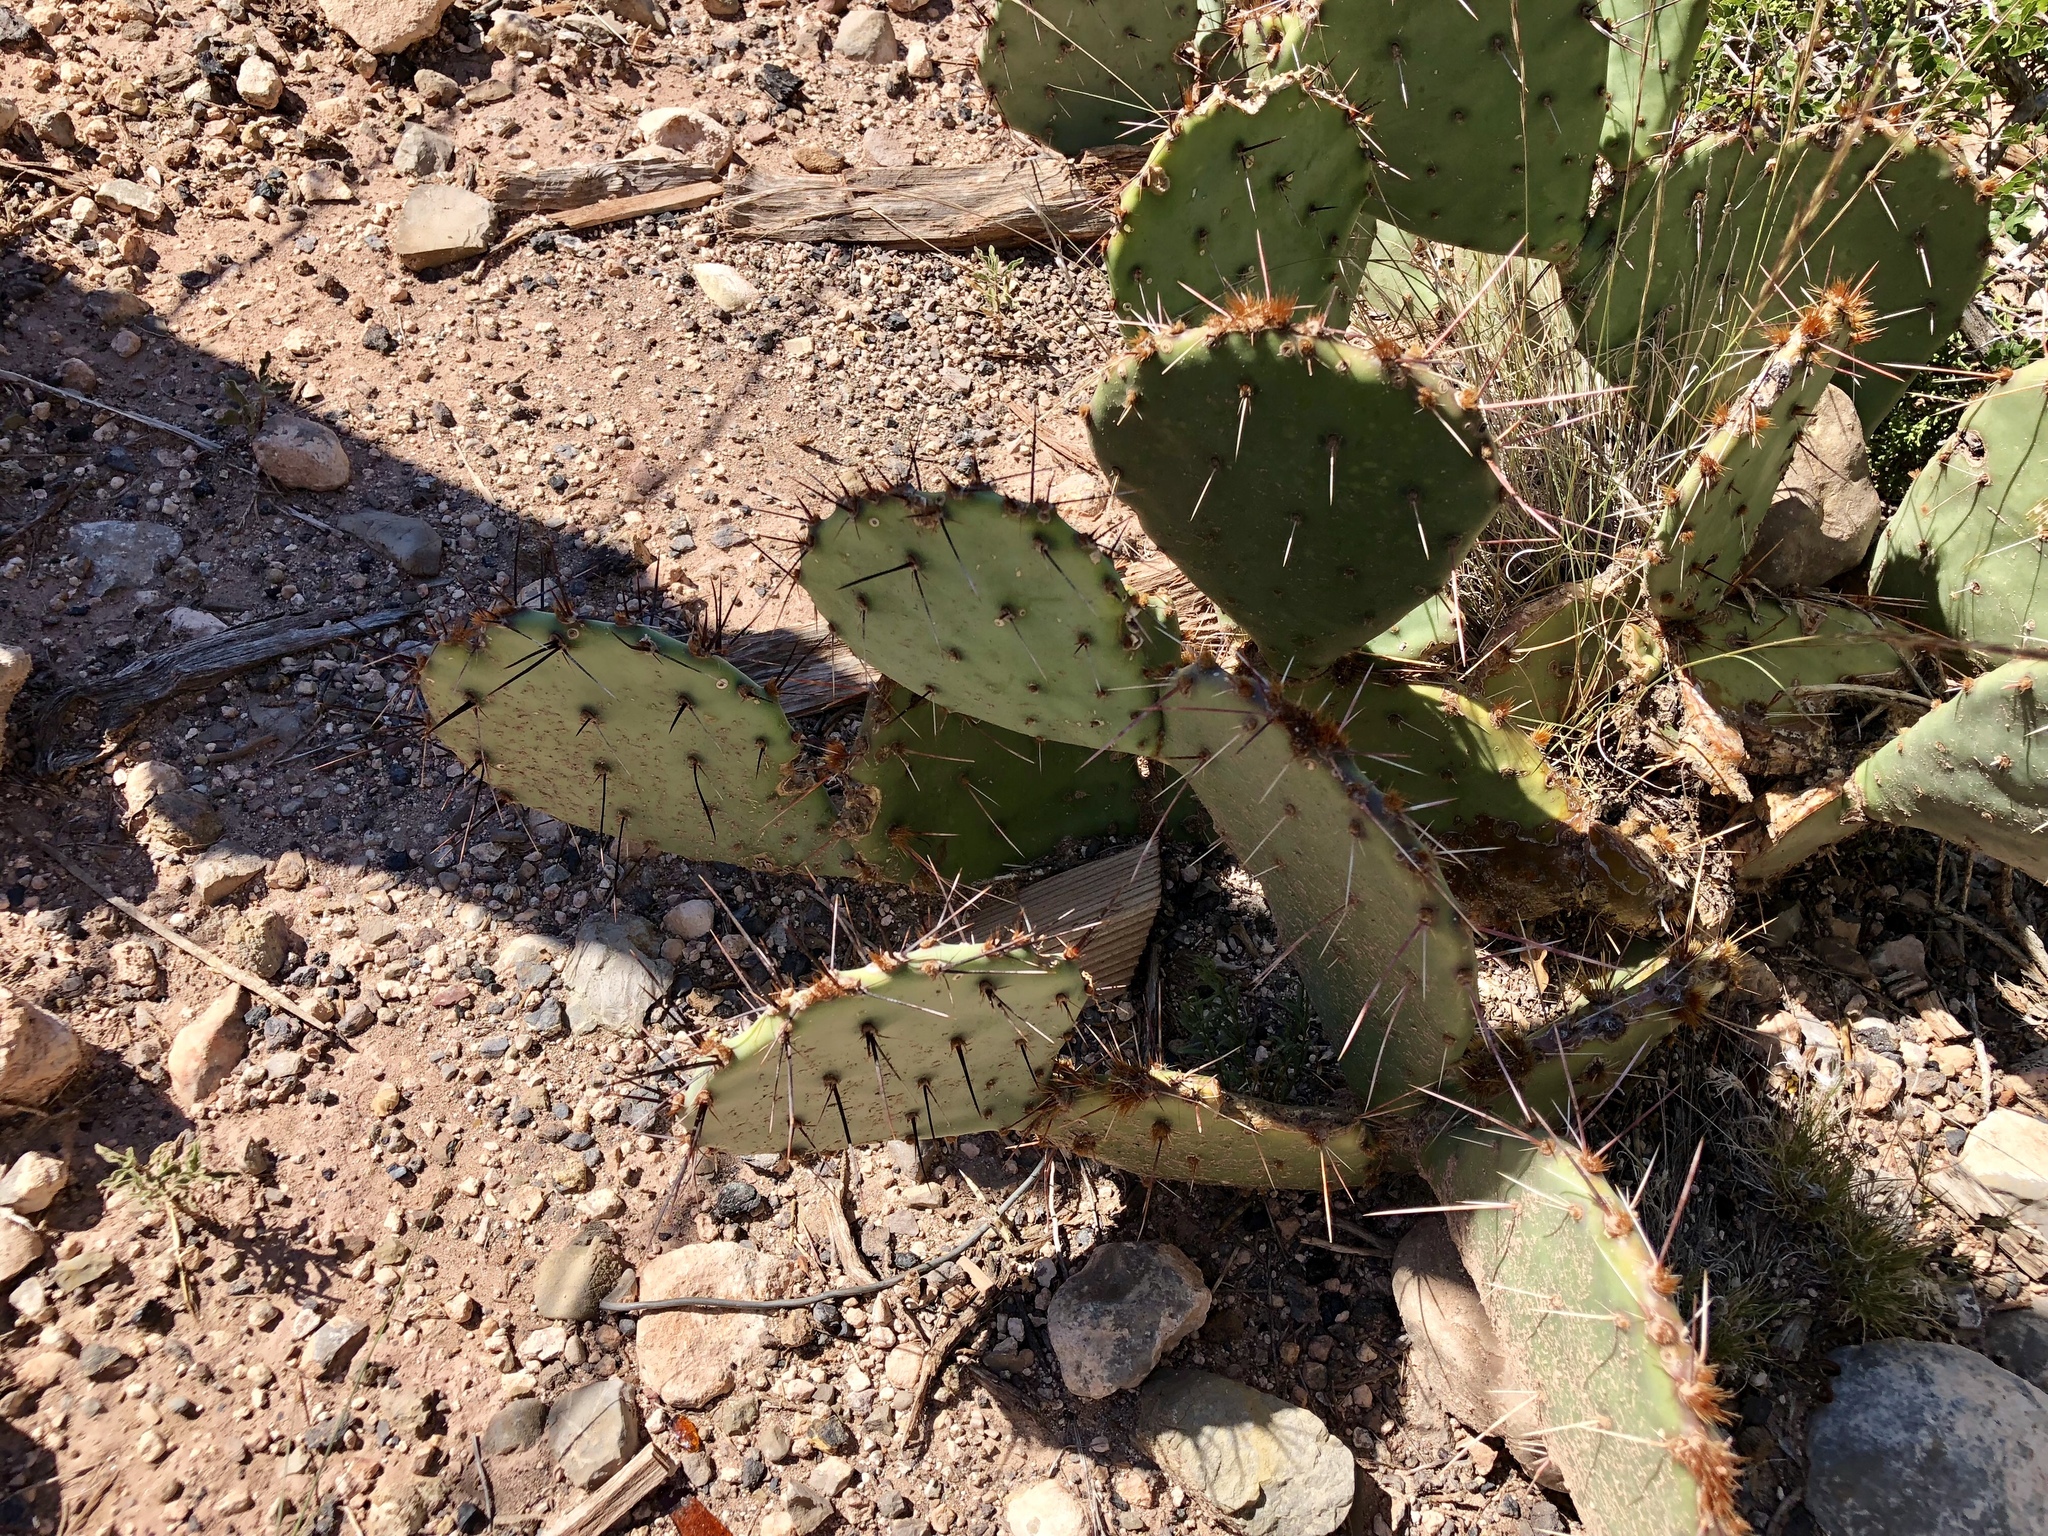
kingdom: Plantae
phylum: Tracheophyta
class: Magnoliopsida
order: Caryophyllales
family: Cactaceae
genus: Opuntia
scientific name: Opuntia engelmannii
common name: Cactus-apple
